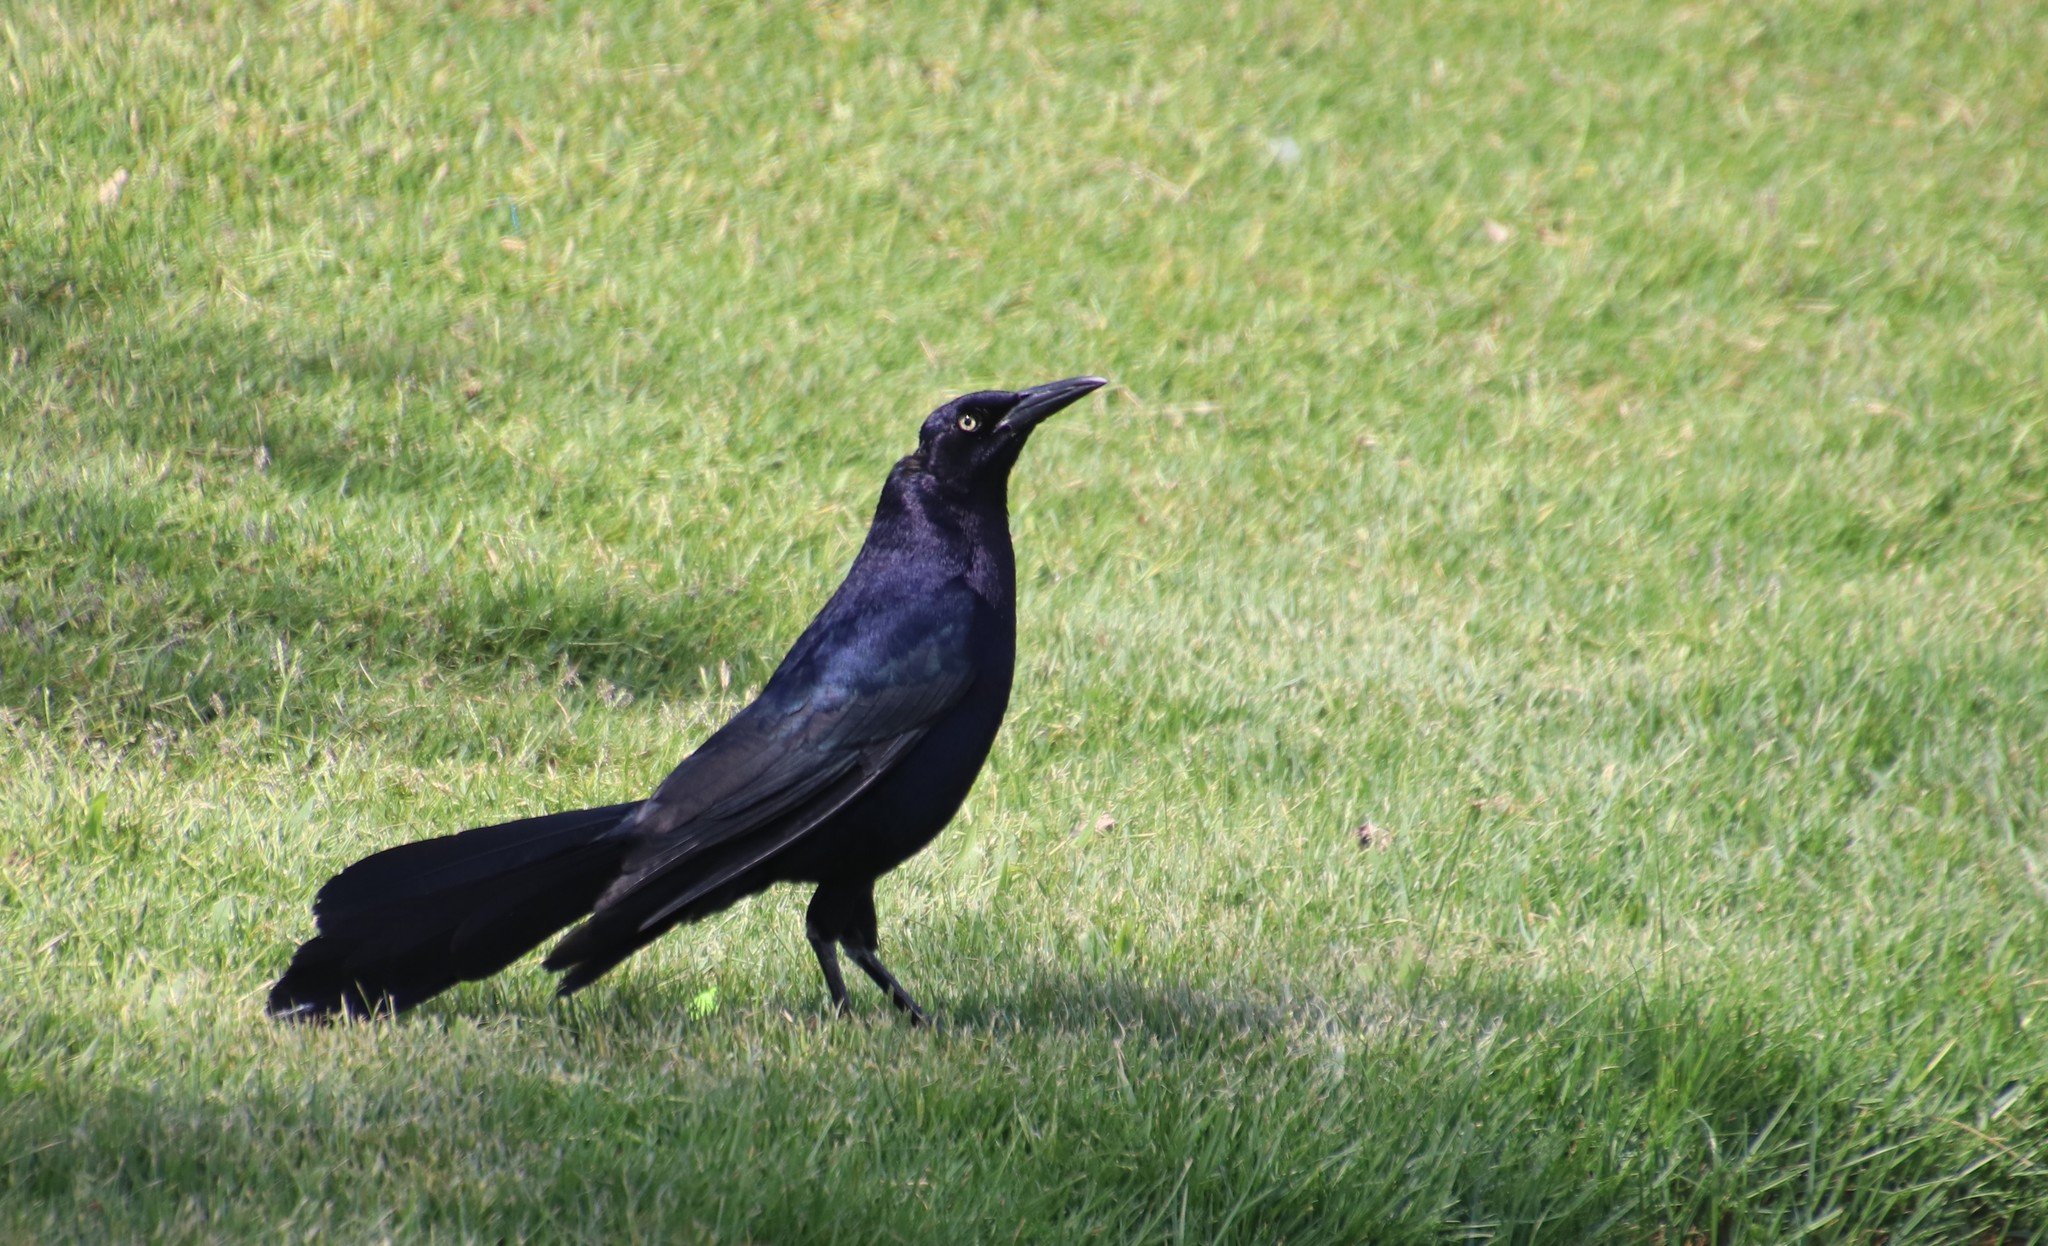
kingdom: Animalia
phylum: Chordata
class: Aves
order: Passeriformes
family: Icteridae
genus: Quiscalus
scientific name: Quiscalus mexicanus
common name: Great-tailed grackle
